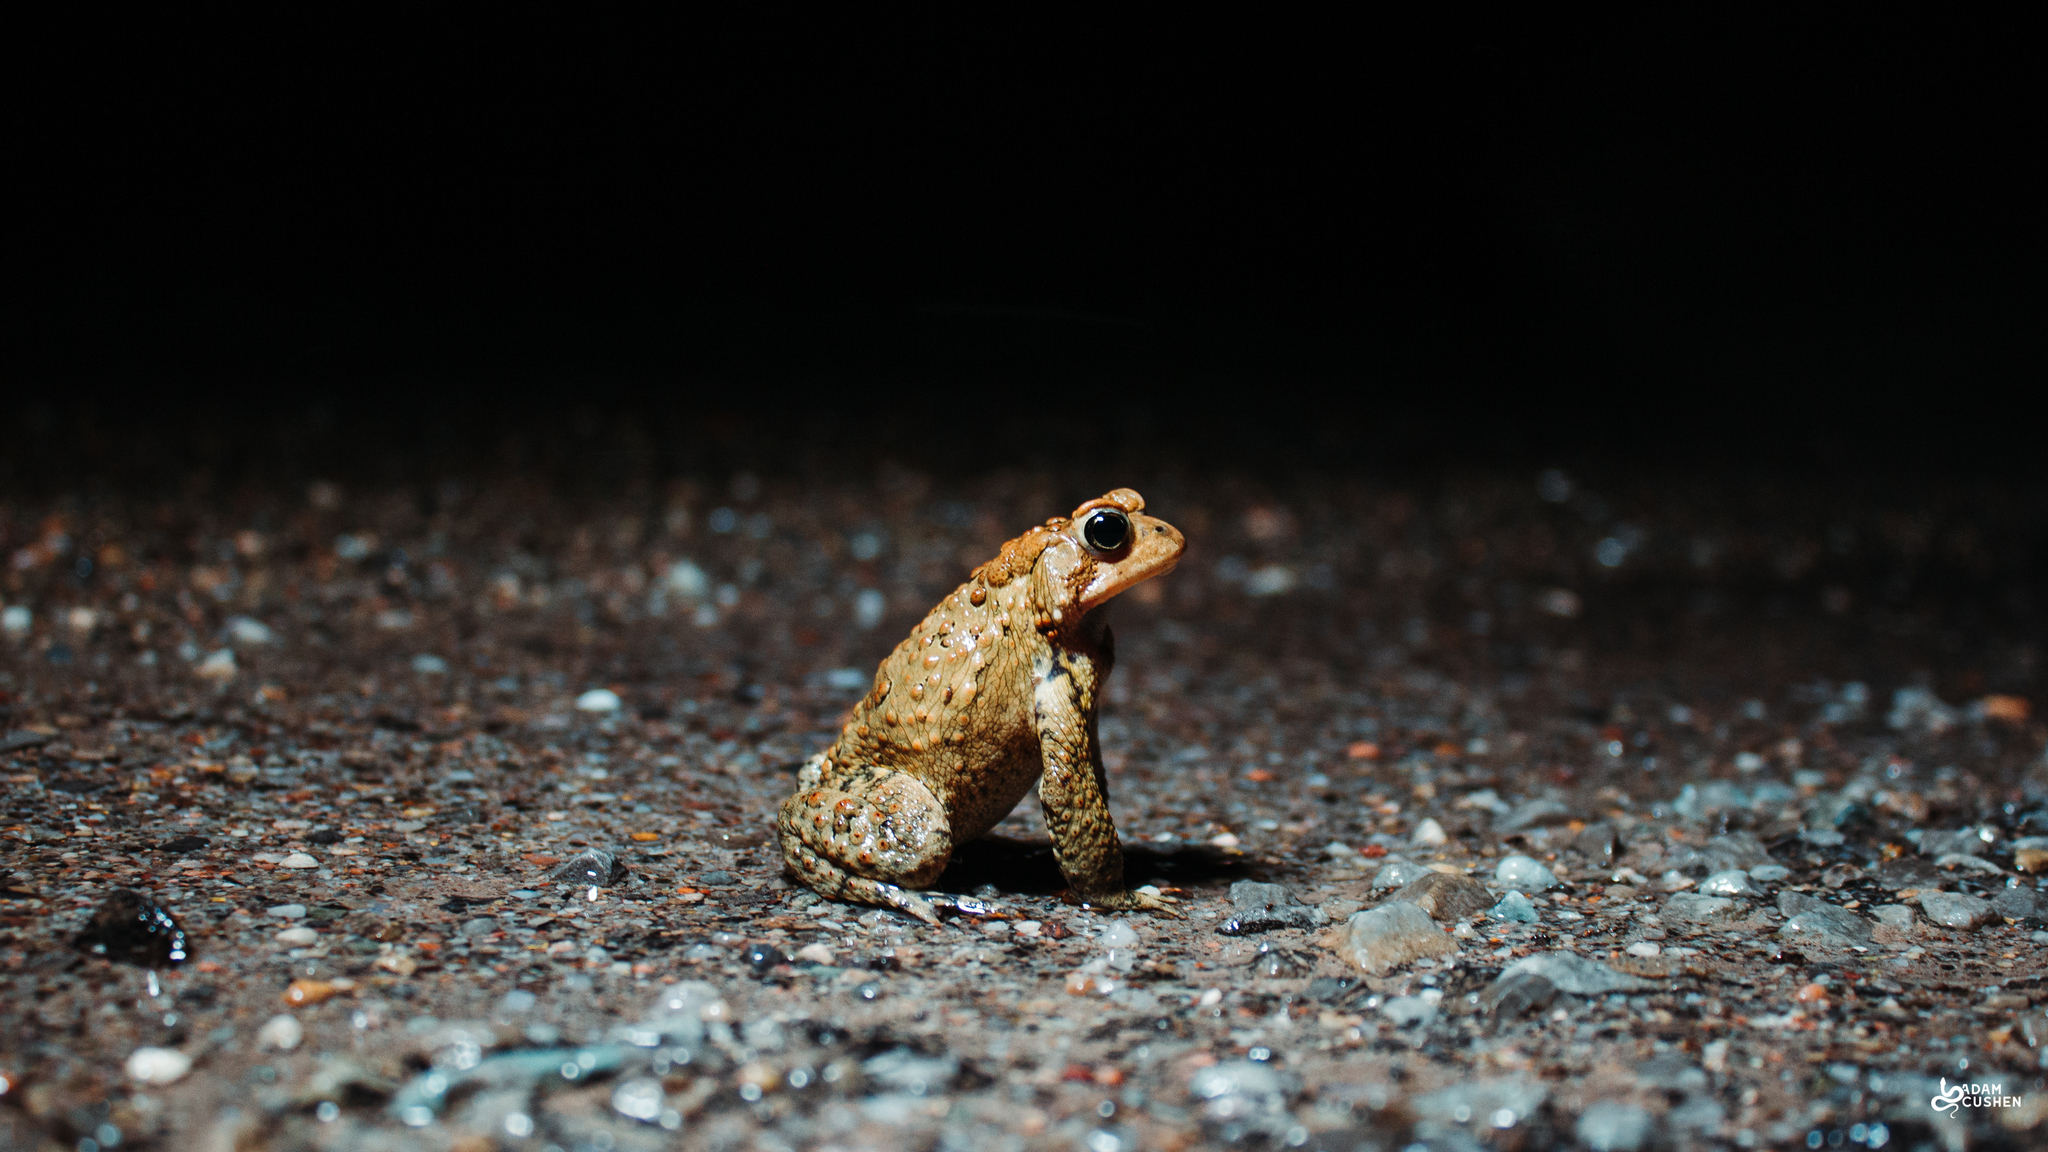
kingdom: Animalia
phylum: Chordata
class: Amphibia
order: Anura
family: Bufonidae
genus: Anaxyrus
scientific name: Anaxyrus americanus
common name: American toad
